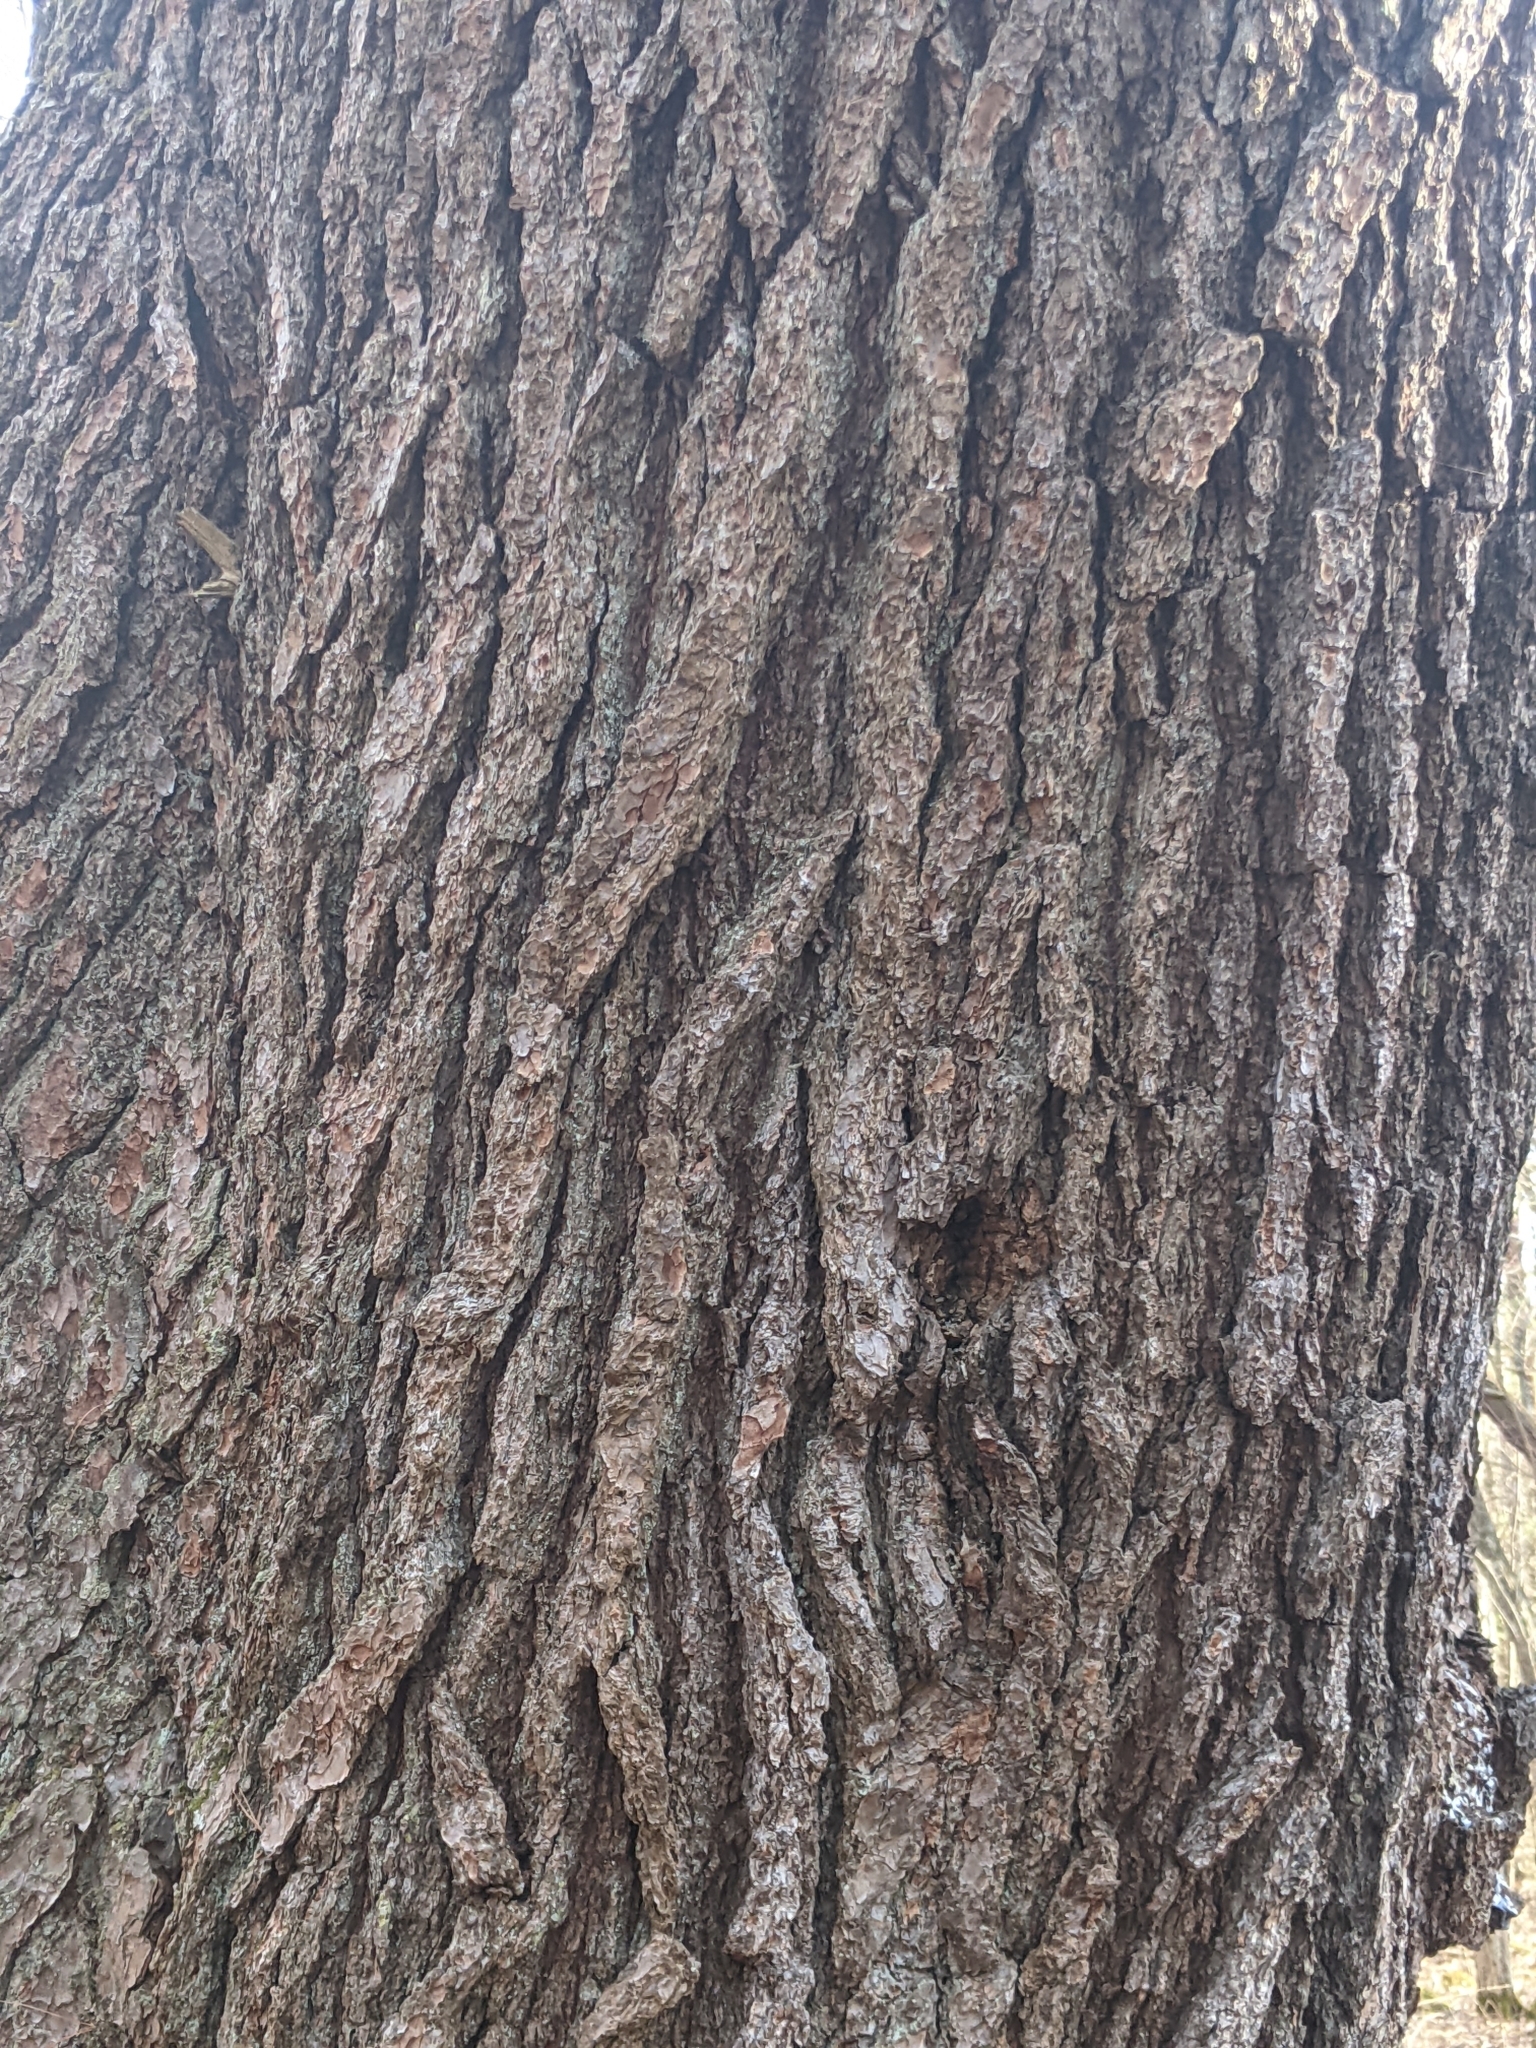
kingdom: Plantae
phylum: Tracheophyta
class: Pinopsida
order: Pinales
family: Pinaceae
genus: Pinus
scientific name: Pinus strobus
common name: Weymouth pine
